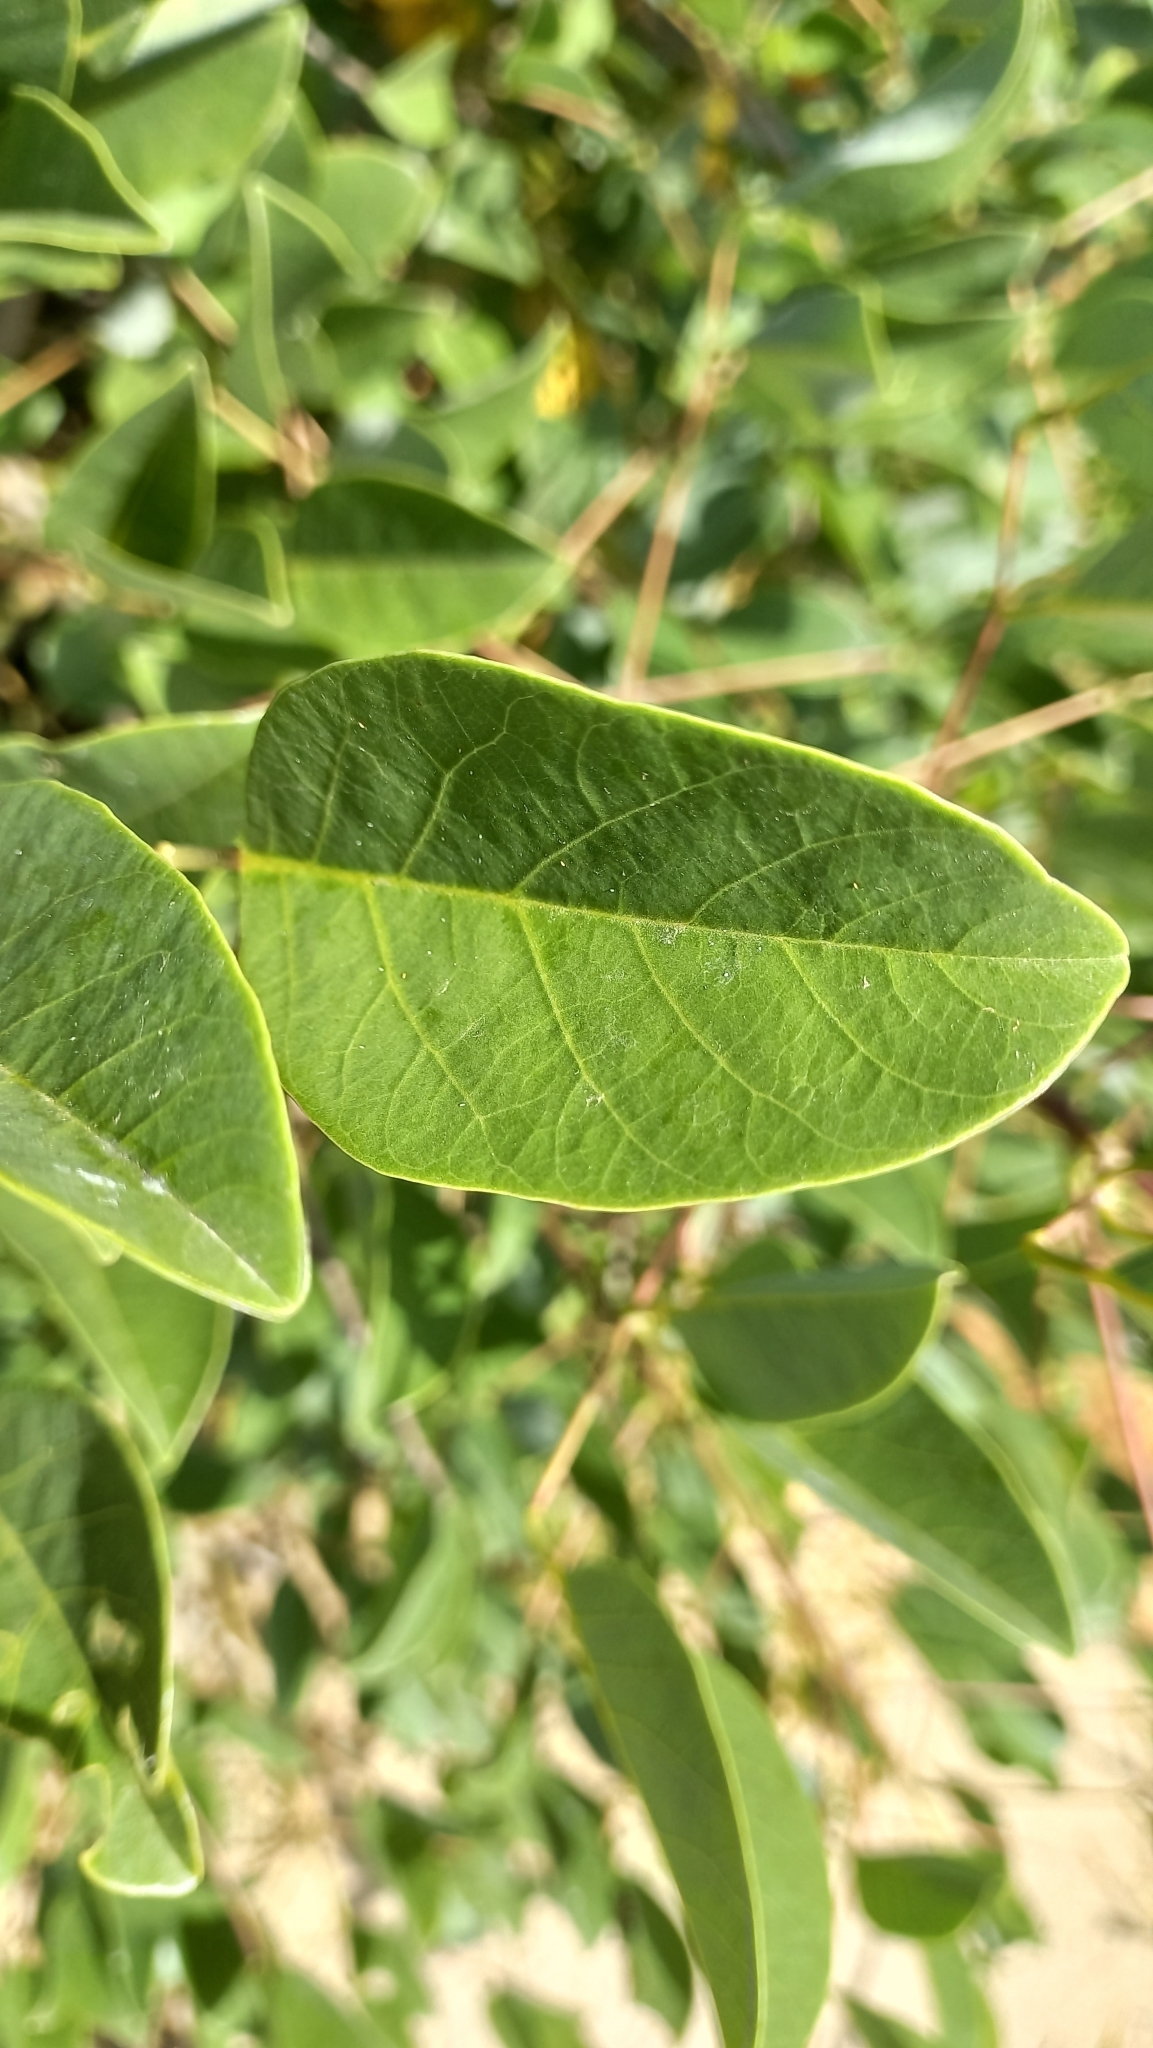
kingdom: Plantae
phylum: Tracheophyta
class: Magnoliopsida
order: Fabales
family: Fabaceae
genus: Erythrina
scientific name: Erythrina crista-galli
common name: Cockspur coral tree
